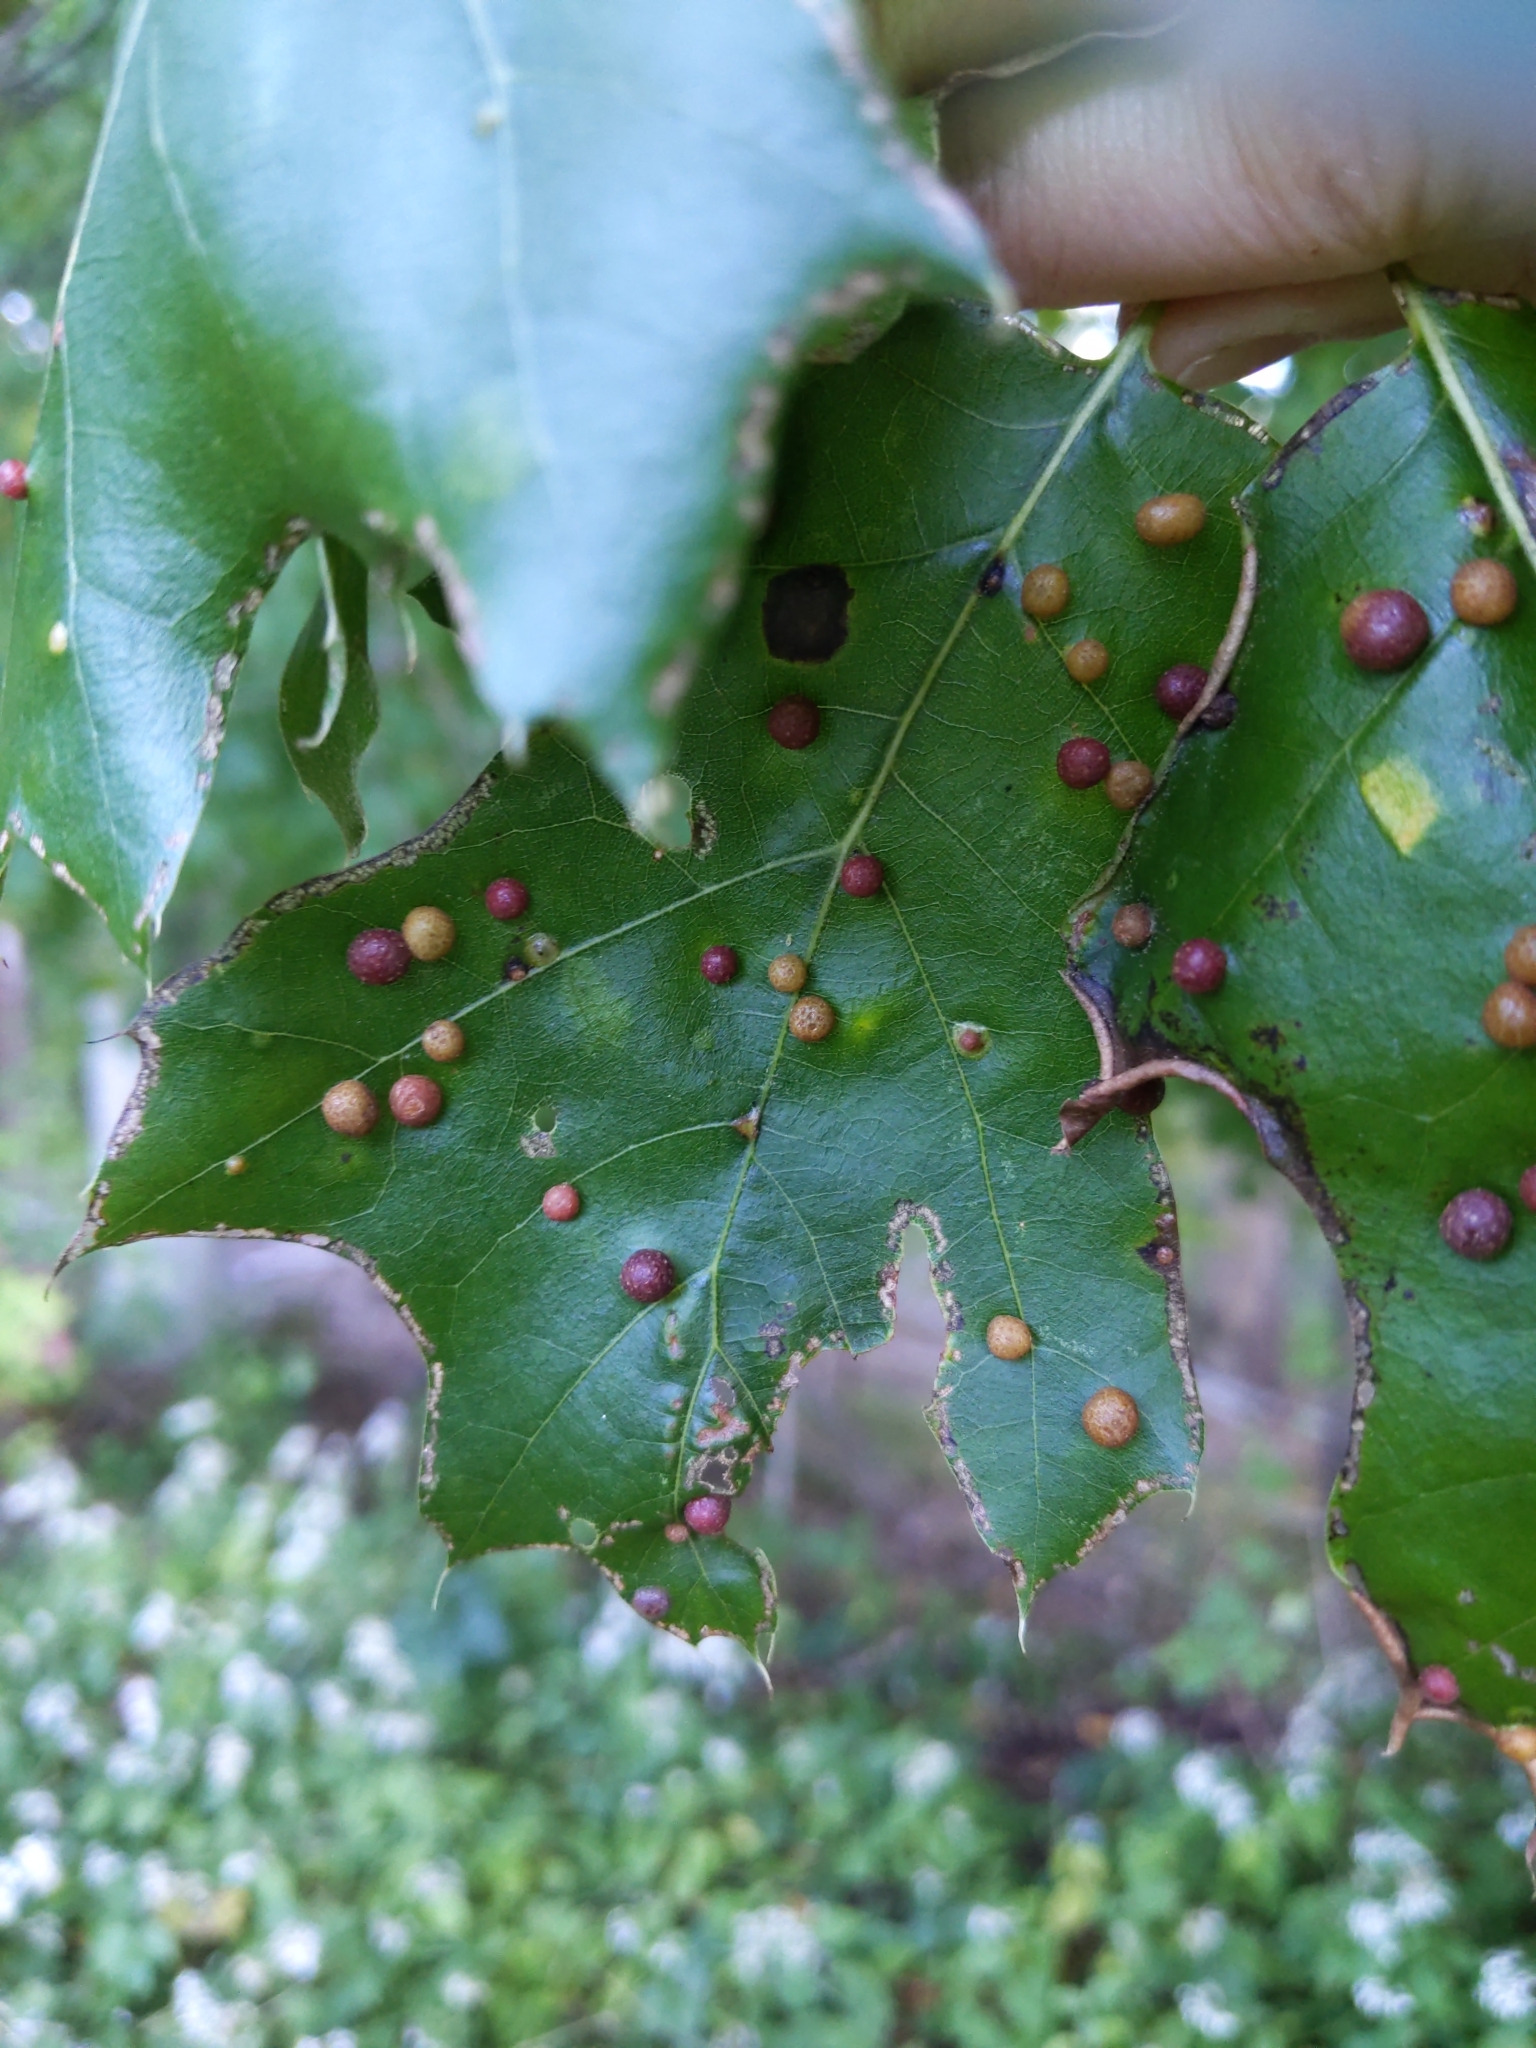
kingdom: Animalia
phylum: Arthropoda
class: Insecta
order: Diptera
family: Cecidomyiidae
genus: Polystepha
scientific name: Polystepha pilulae
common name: Oak leaf gall midge
